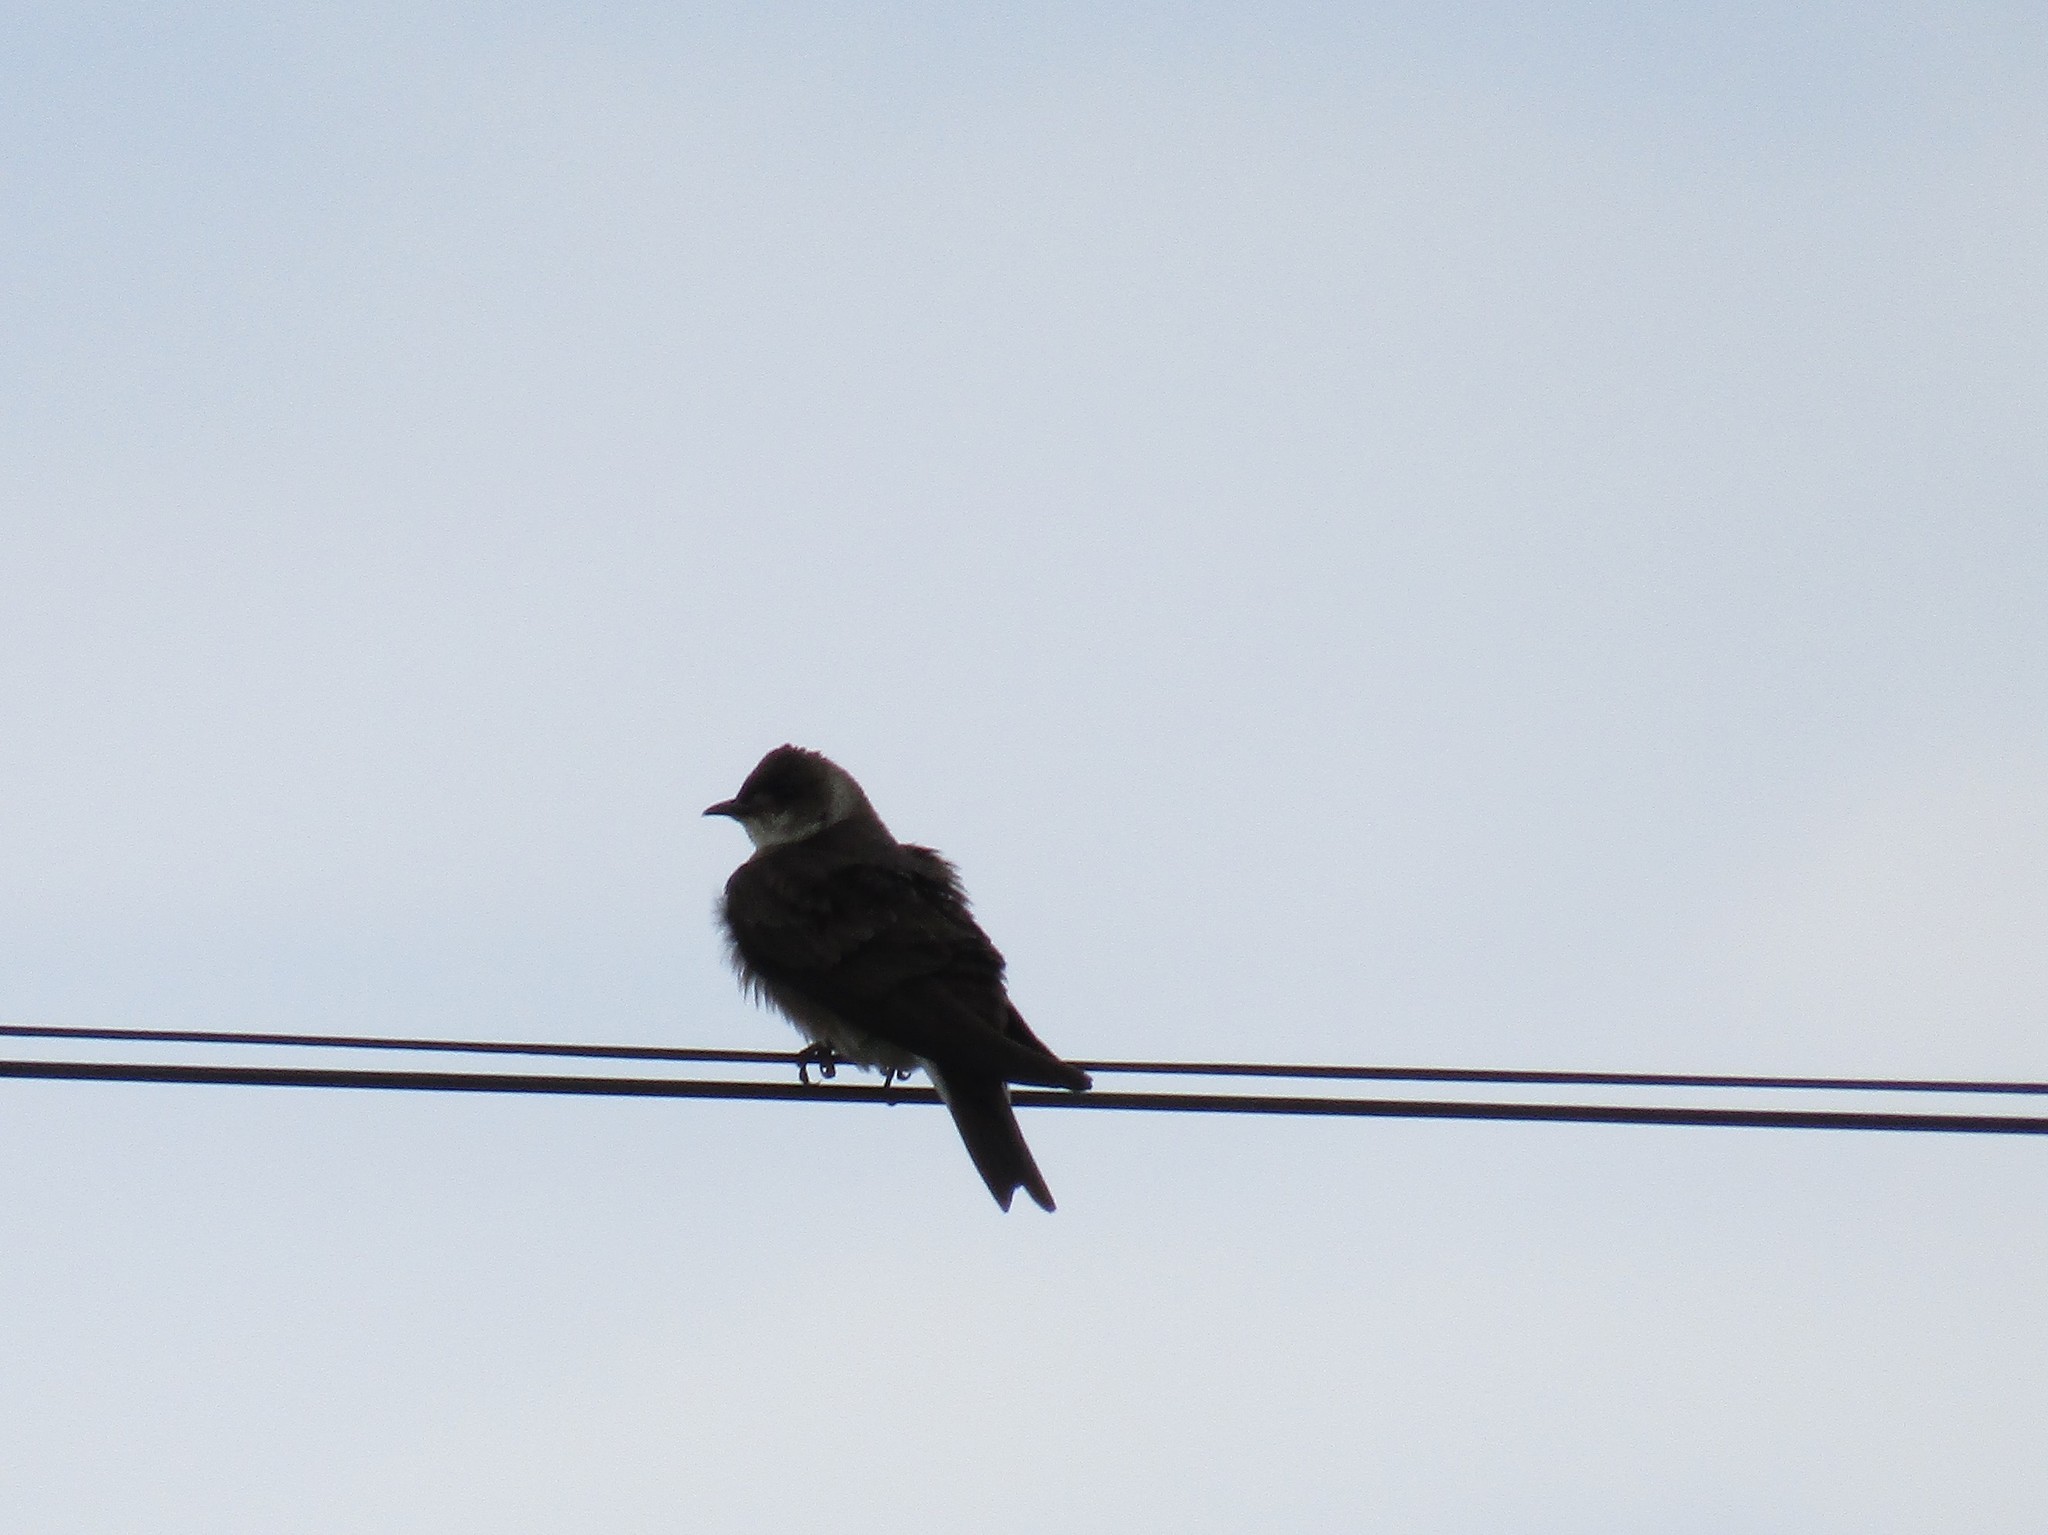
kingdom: Animalia
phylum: Chordata
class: Aves
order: Passeriformes
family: Hirundinidae
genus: Progne
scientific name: Progne tapera
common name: Brown-chested martin
